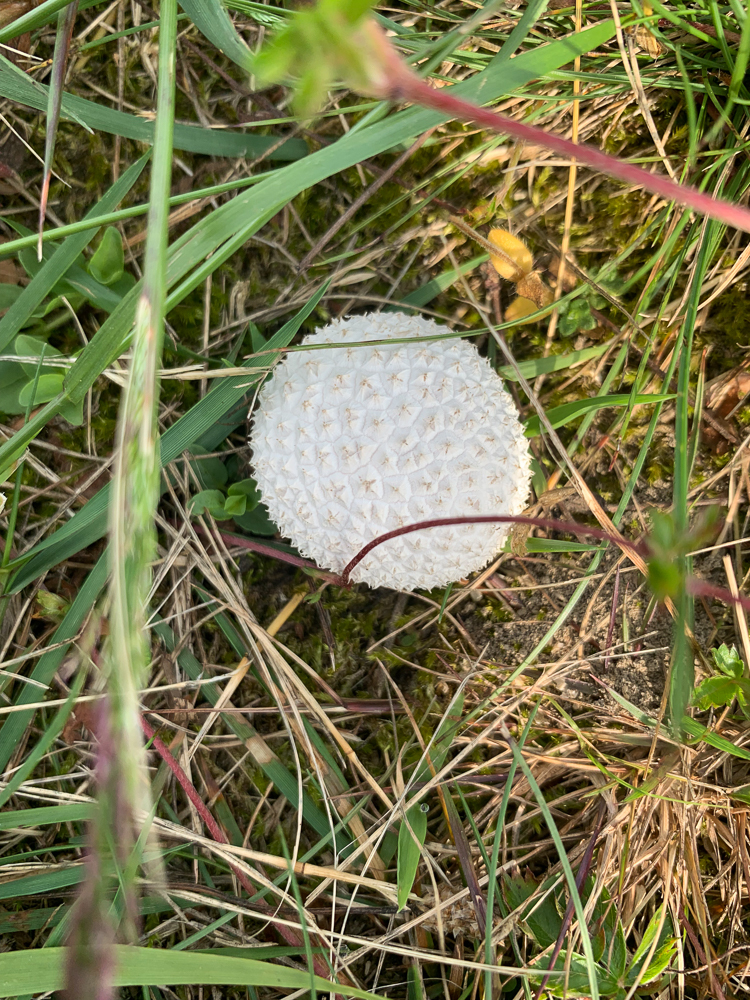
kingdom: Fungi
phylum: Basidiomycota
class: Agaricomycetes
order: Agaricales
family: Agaricaceae
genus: Lycoperdon
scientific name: Lycoperdon marginatum
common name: Peeling puffball
